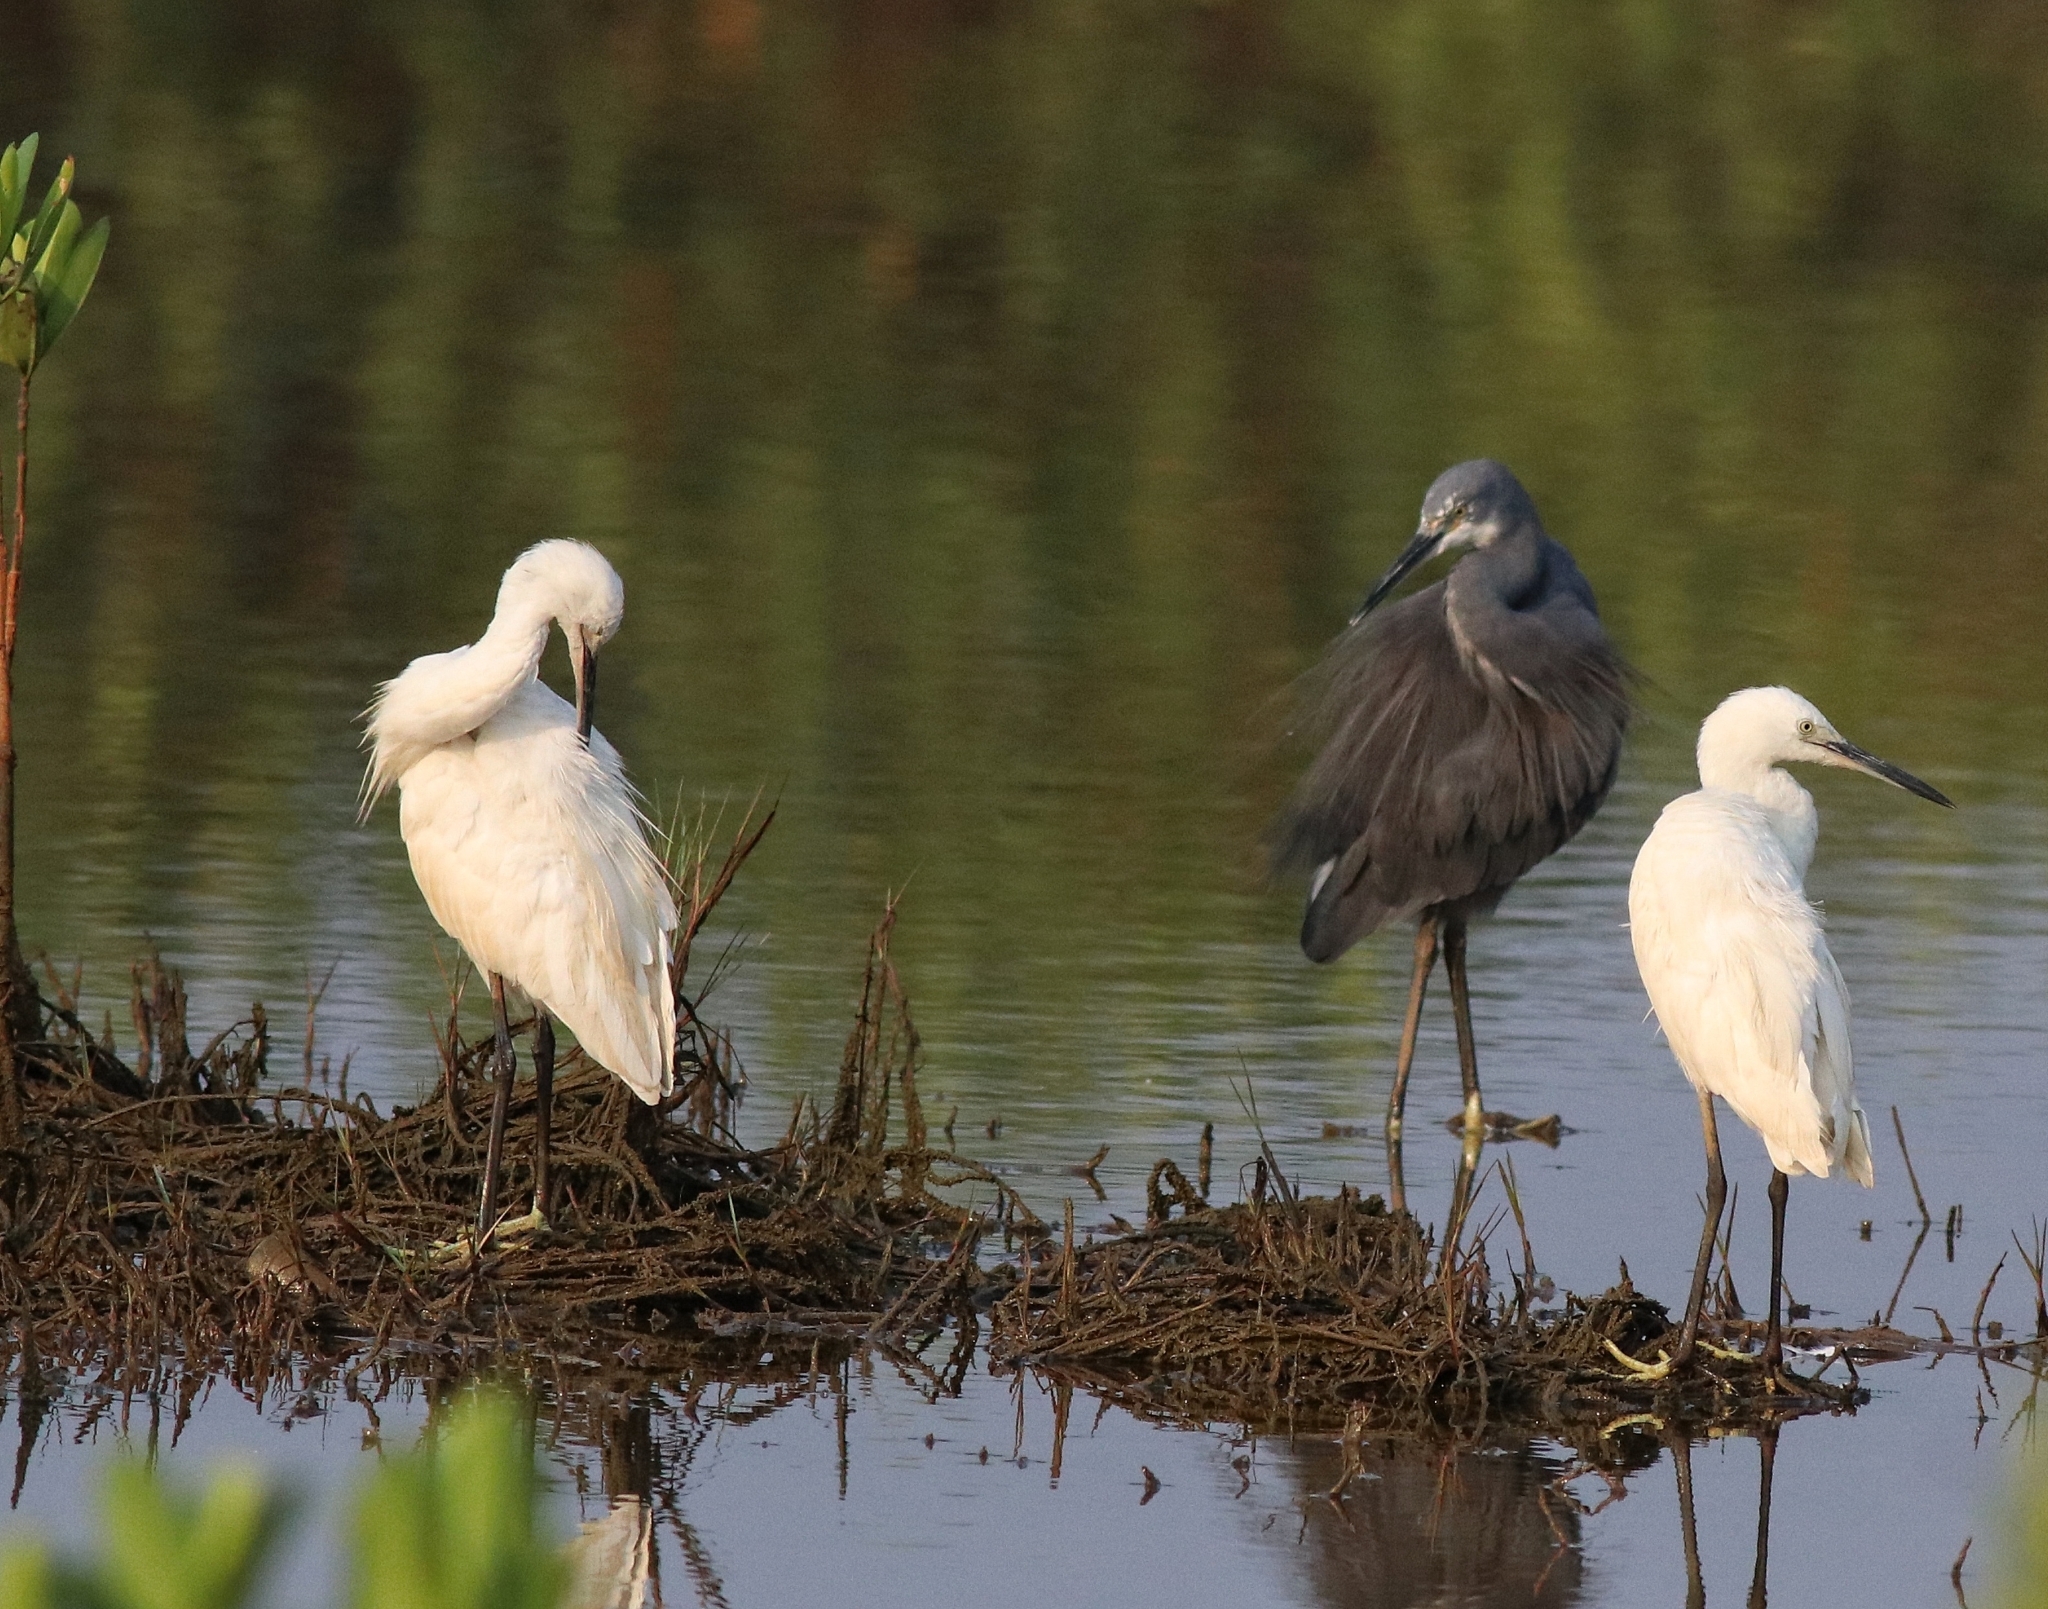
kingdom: Animalia
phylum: Chordata
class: Aves
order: Pelecaniformes
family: Ardeidae
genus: Egretta
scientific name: Egretta garzetta
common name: Little egret
